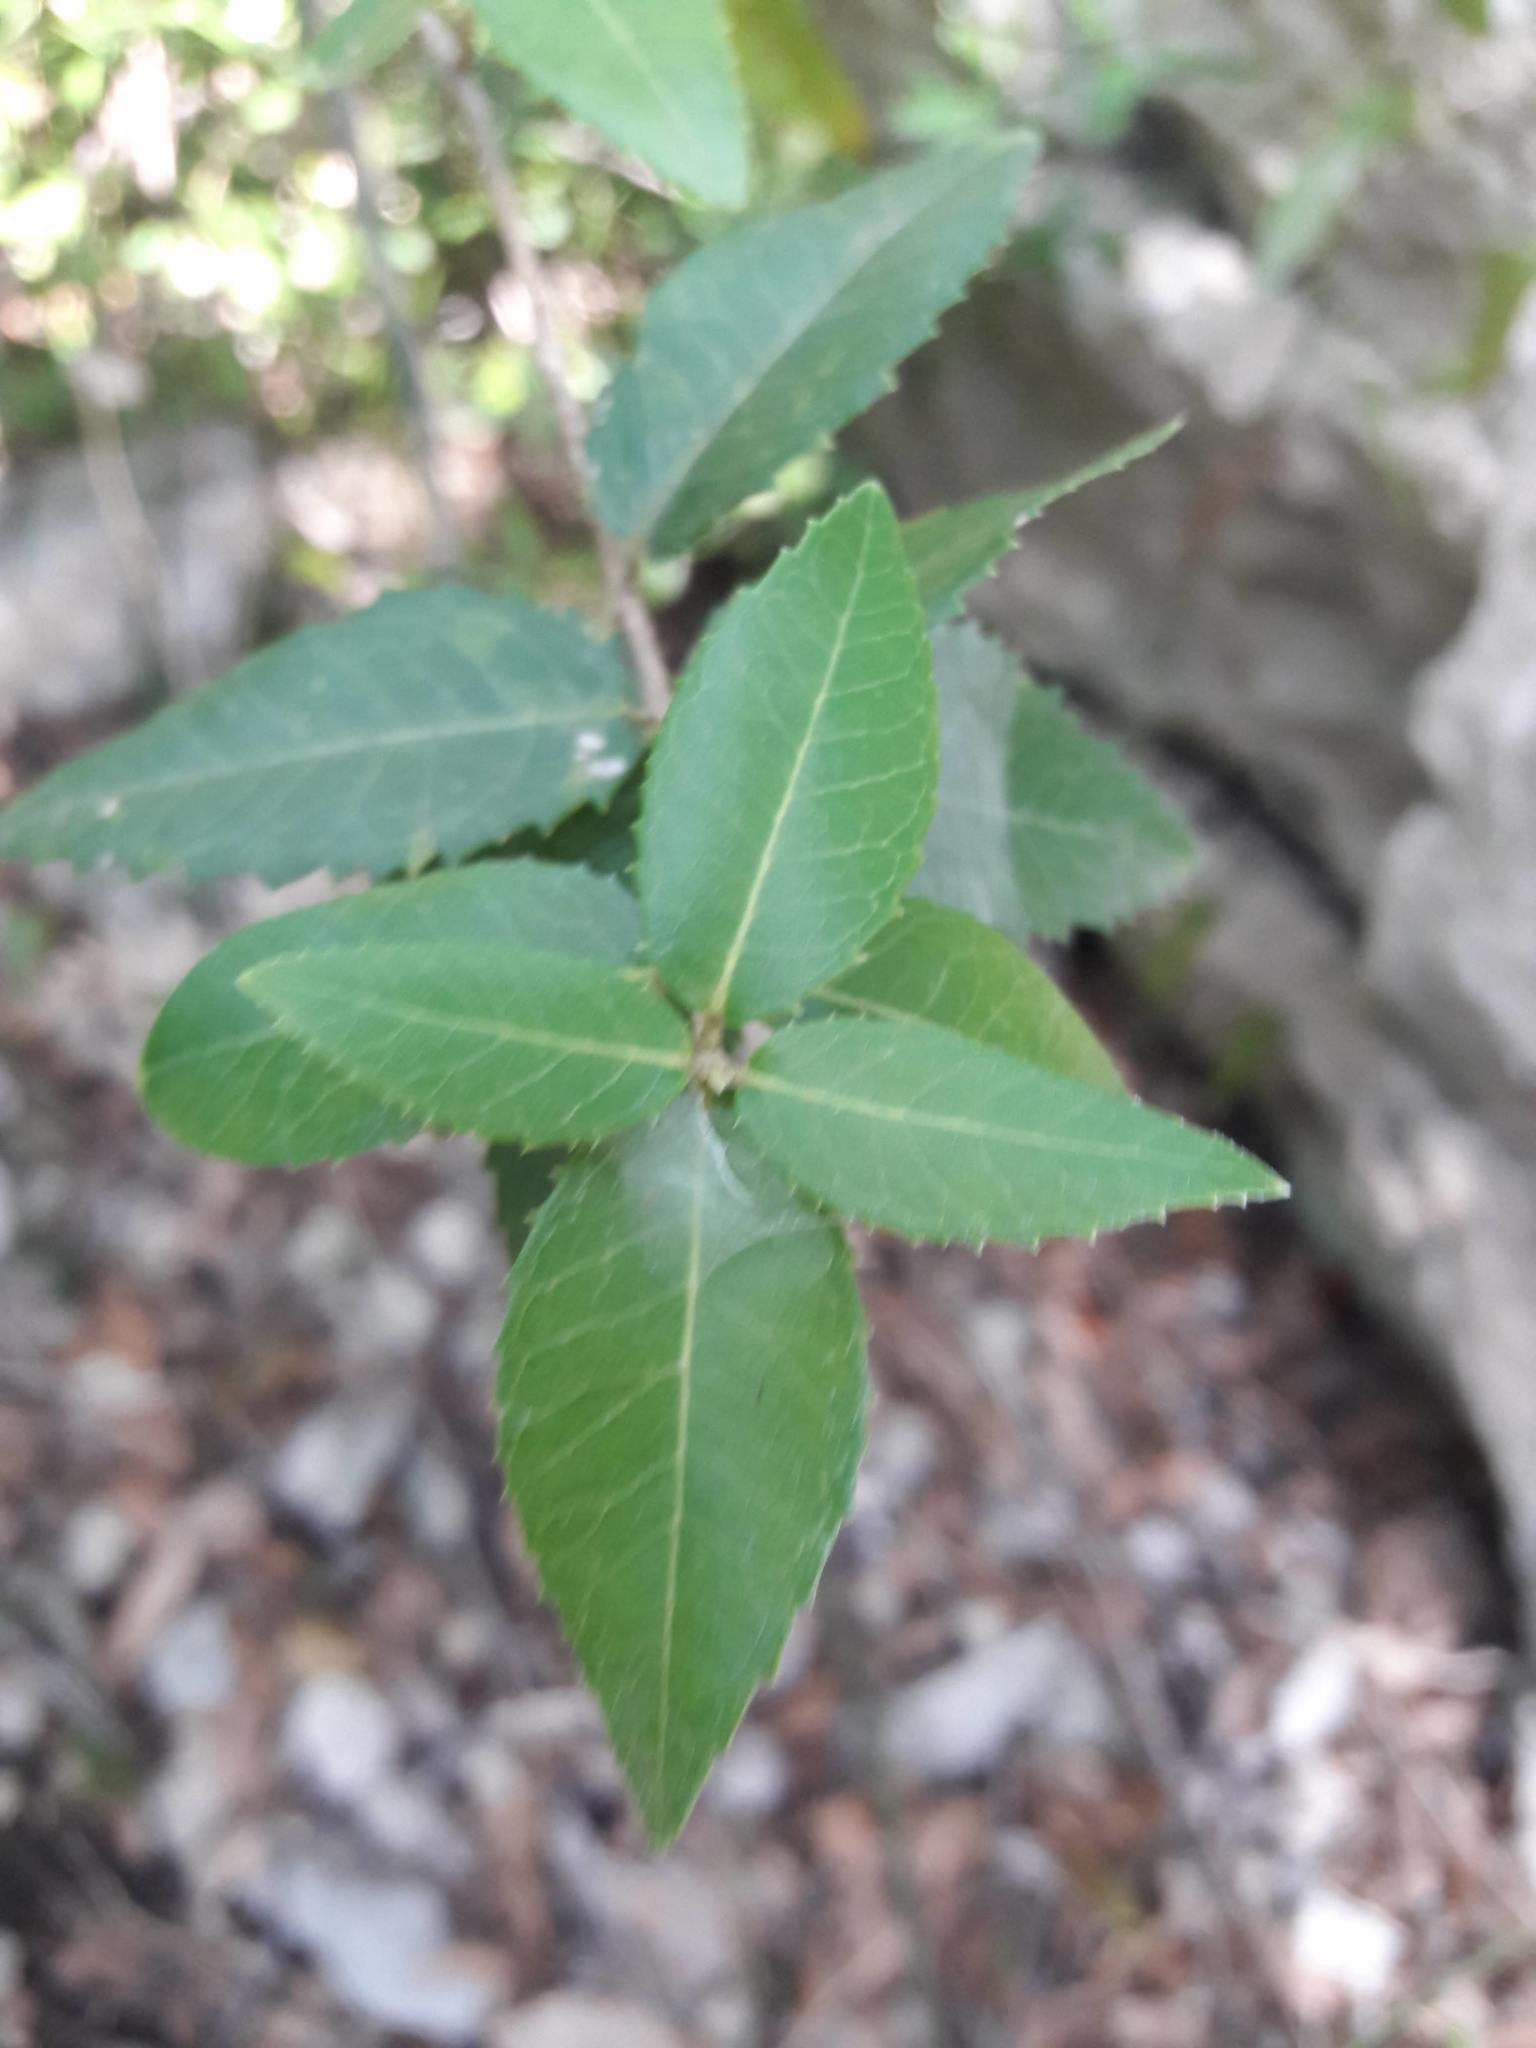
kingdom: Plantae
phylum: Tracheophyta
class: Magnoliopsida
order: Lamiales
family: Oleaceae
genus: Phillyrea
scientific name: Phillyrea latifolia
